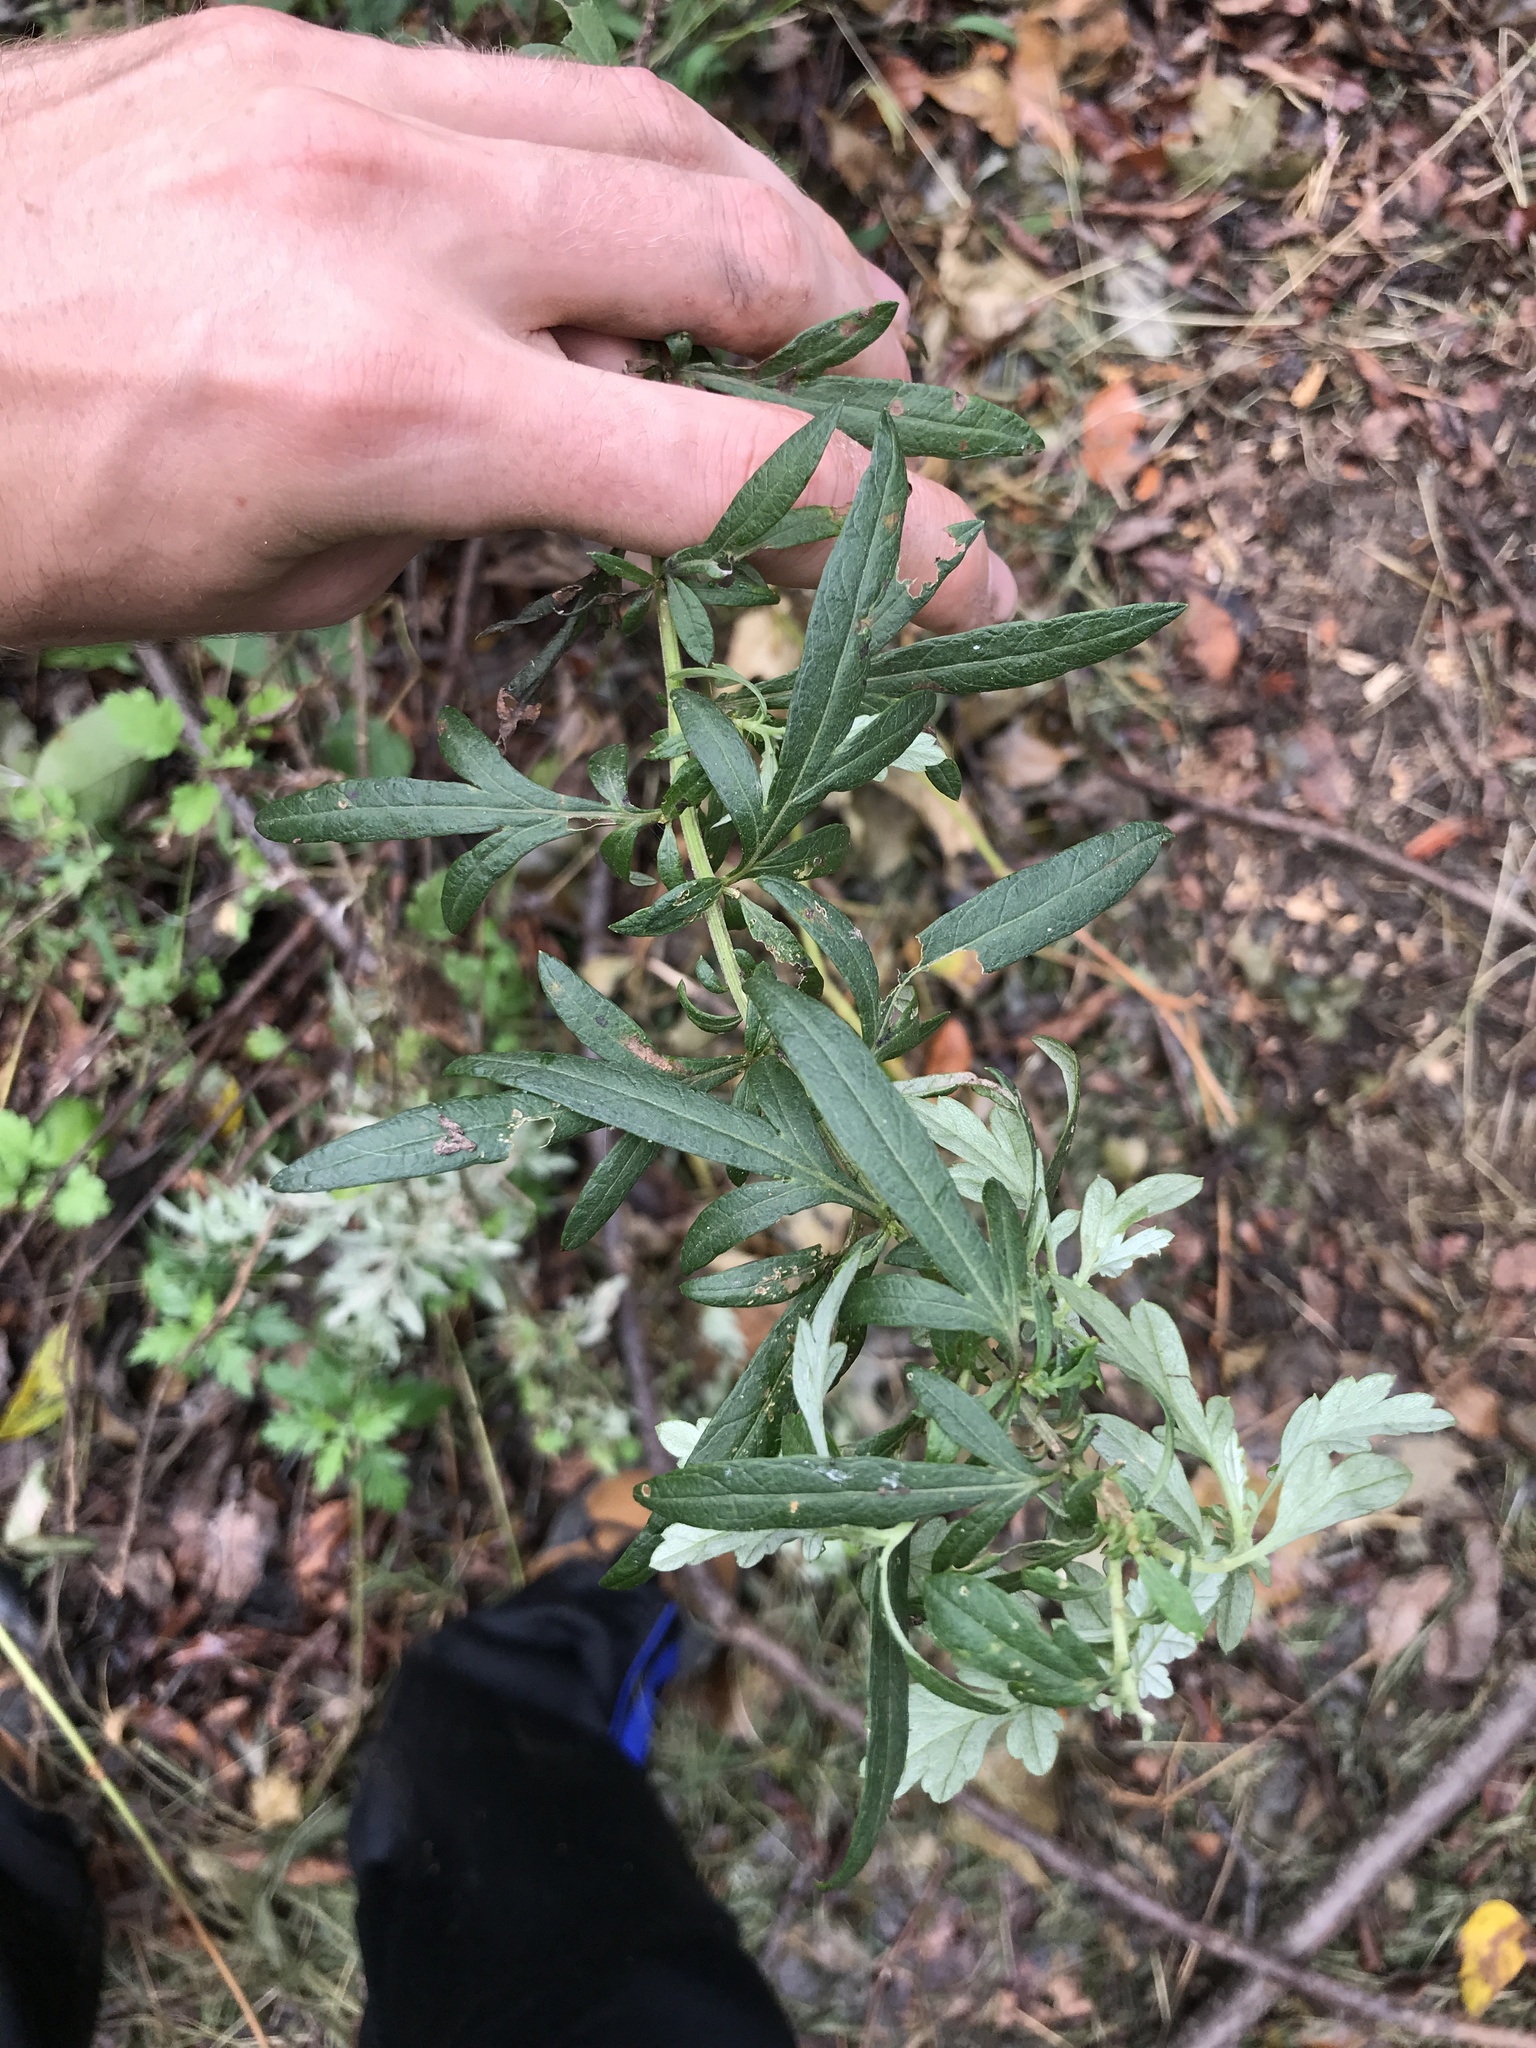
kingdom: Plantae
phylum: Tracheophyta
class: Magnoliopsida
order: Asterales
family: Asteraceae
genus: Artemisia
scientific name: Artemisia vulgaris
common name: Mugwort
